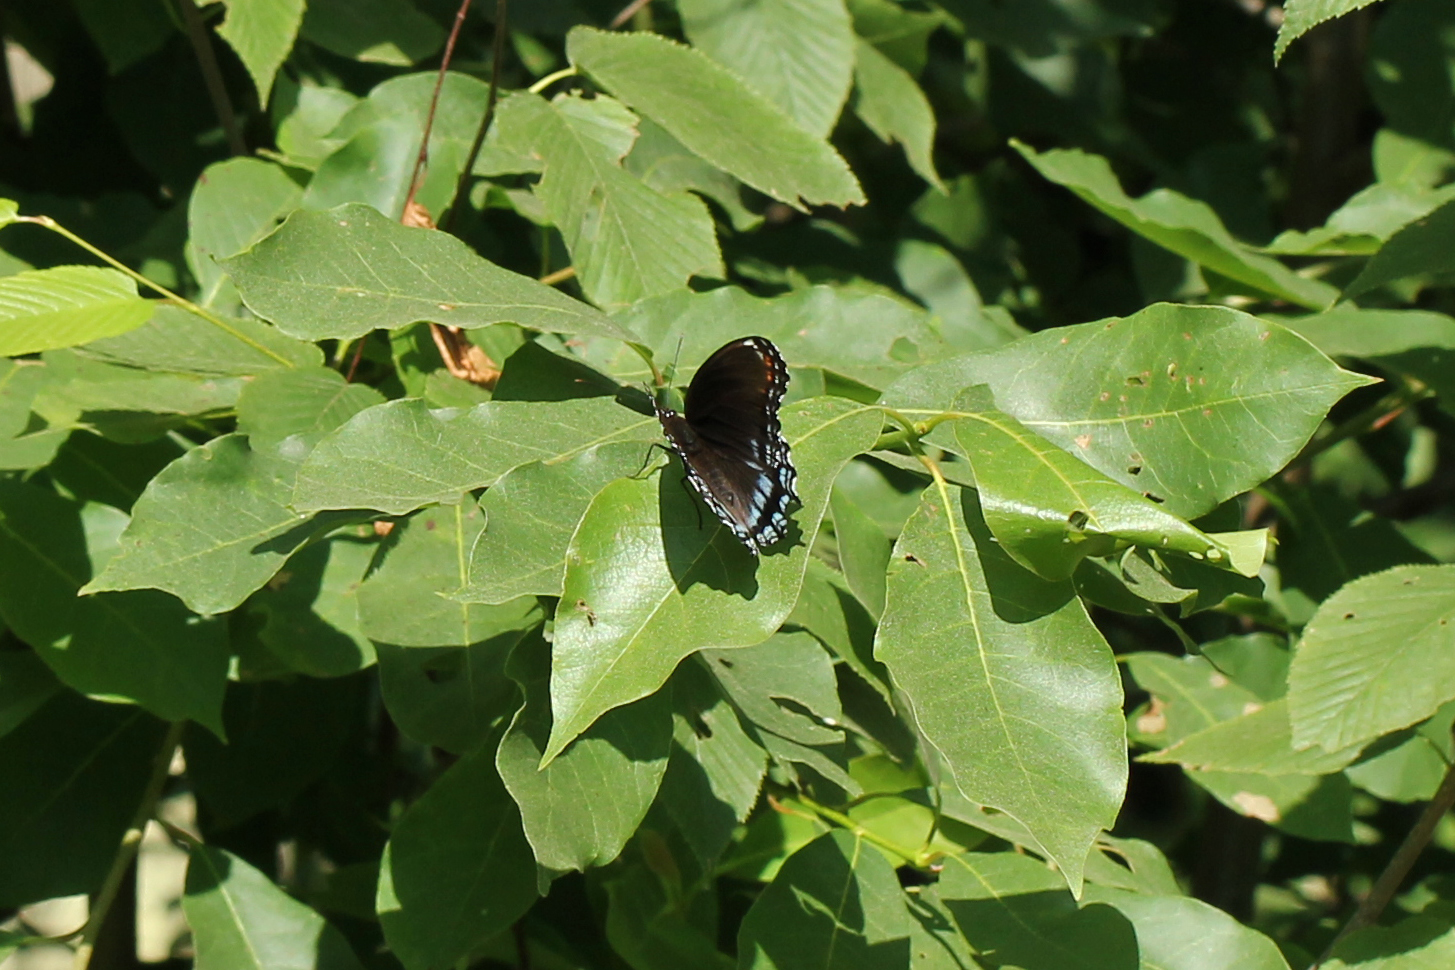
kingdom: Animalia
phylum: Arthropoda
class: Insecta
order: Lepidoptera
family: Nymphalidae
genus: Limenitis
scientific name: Limenitis astyanax
